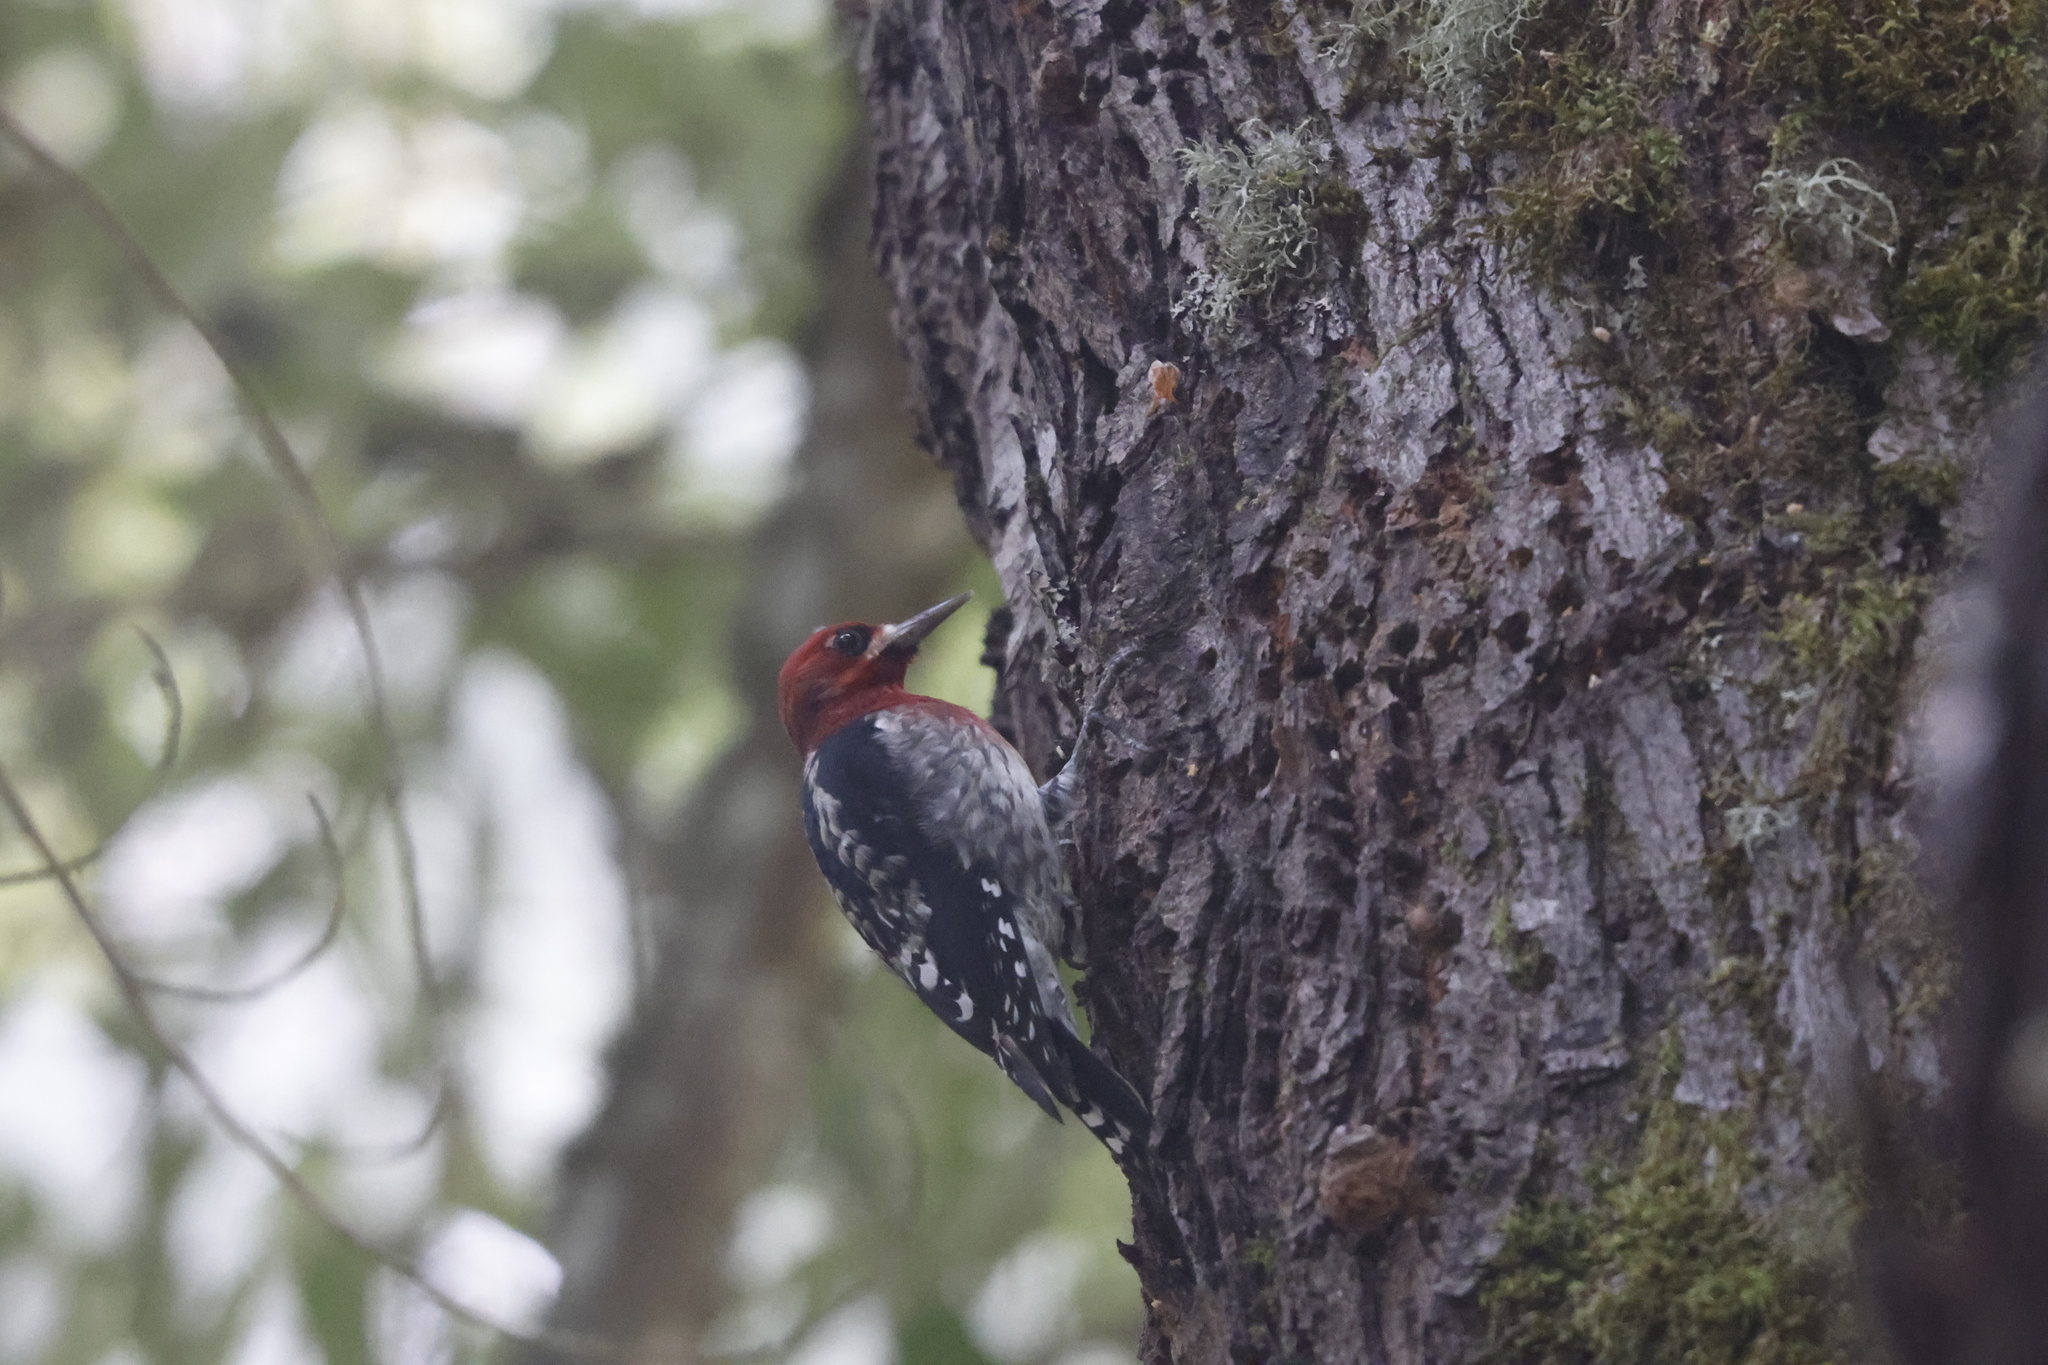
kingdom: Animalia
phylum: Chordata
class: Aves
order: Piciformes
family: Picidae
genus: Sphyrapicus
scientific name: Sphyrapicus ruber
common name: Red-breasted sapsucker
